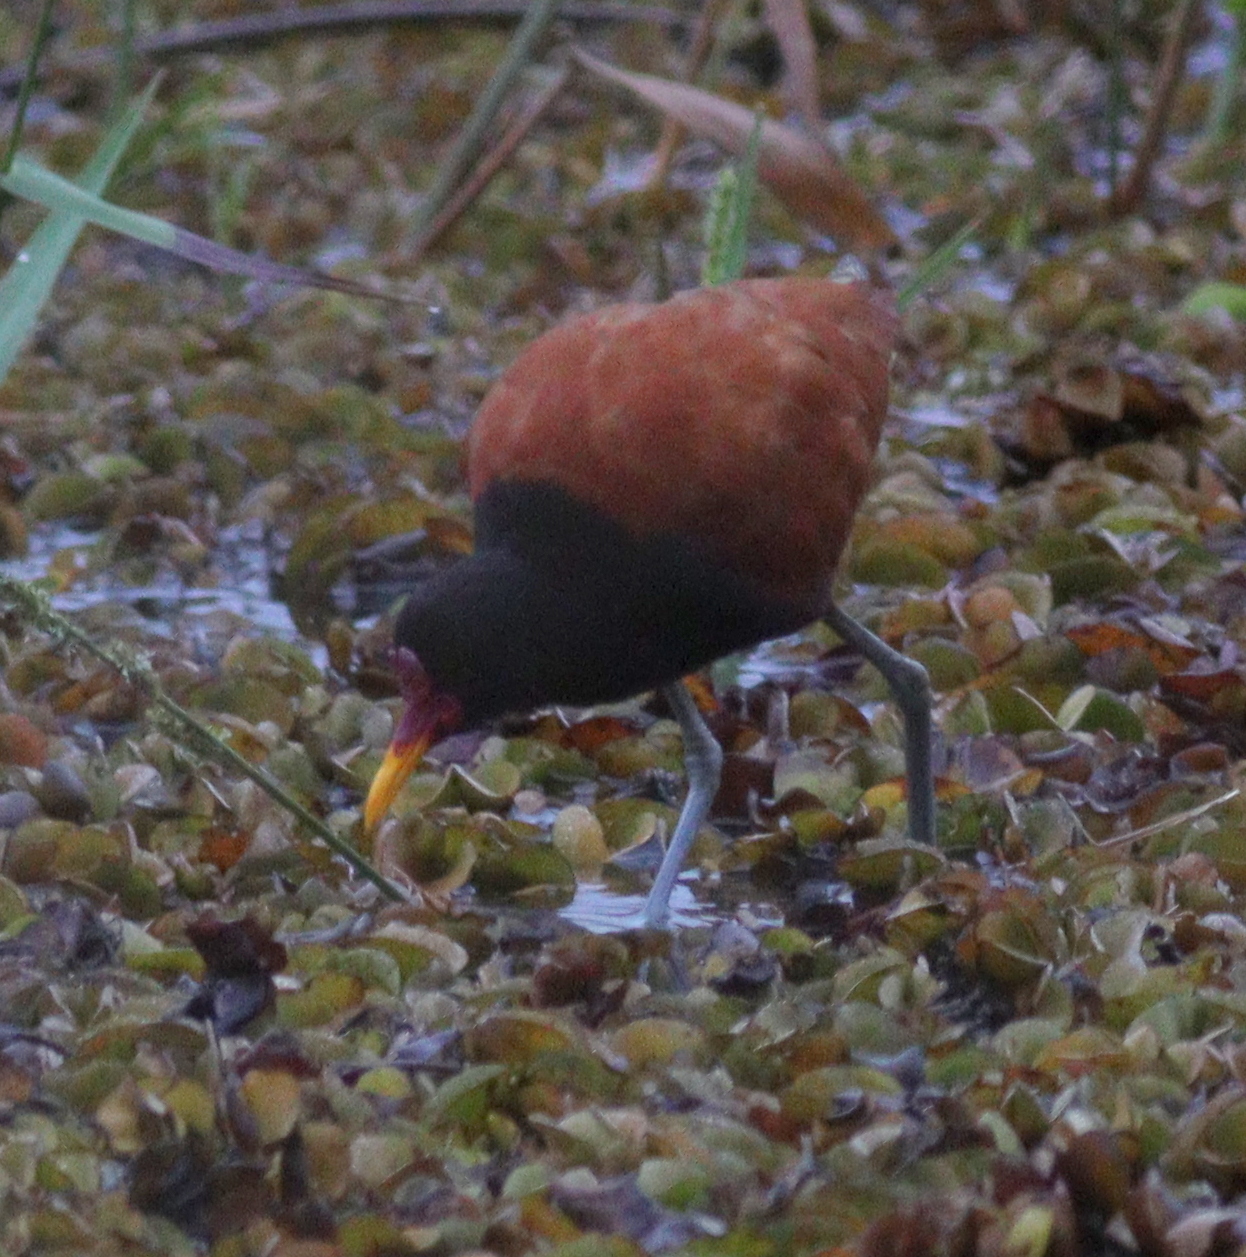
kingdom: Animalia
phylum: Chordata
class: Aves
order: Charadriiformes
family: Jacanidae
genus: Jacana
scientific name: Jacana jacana
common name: Wattled jacana
